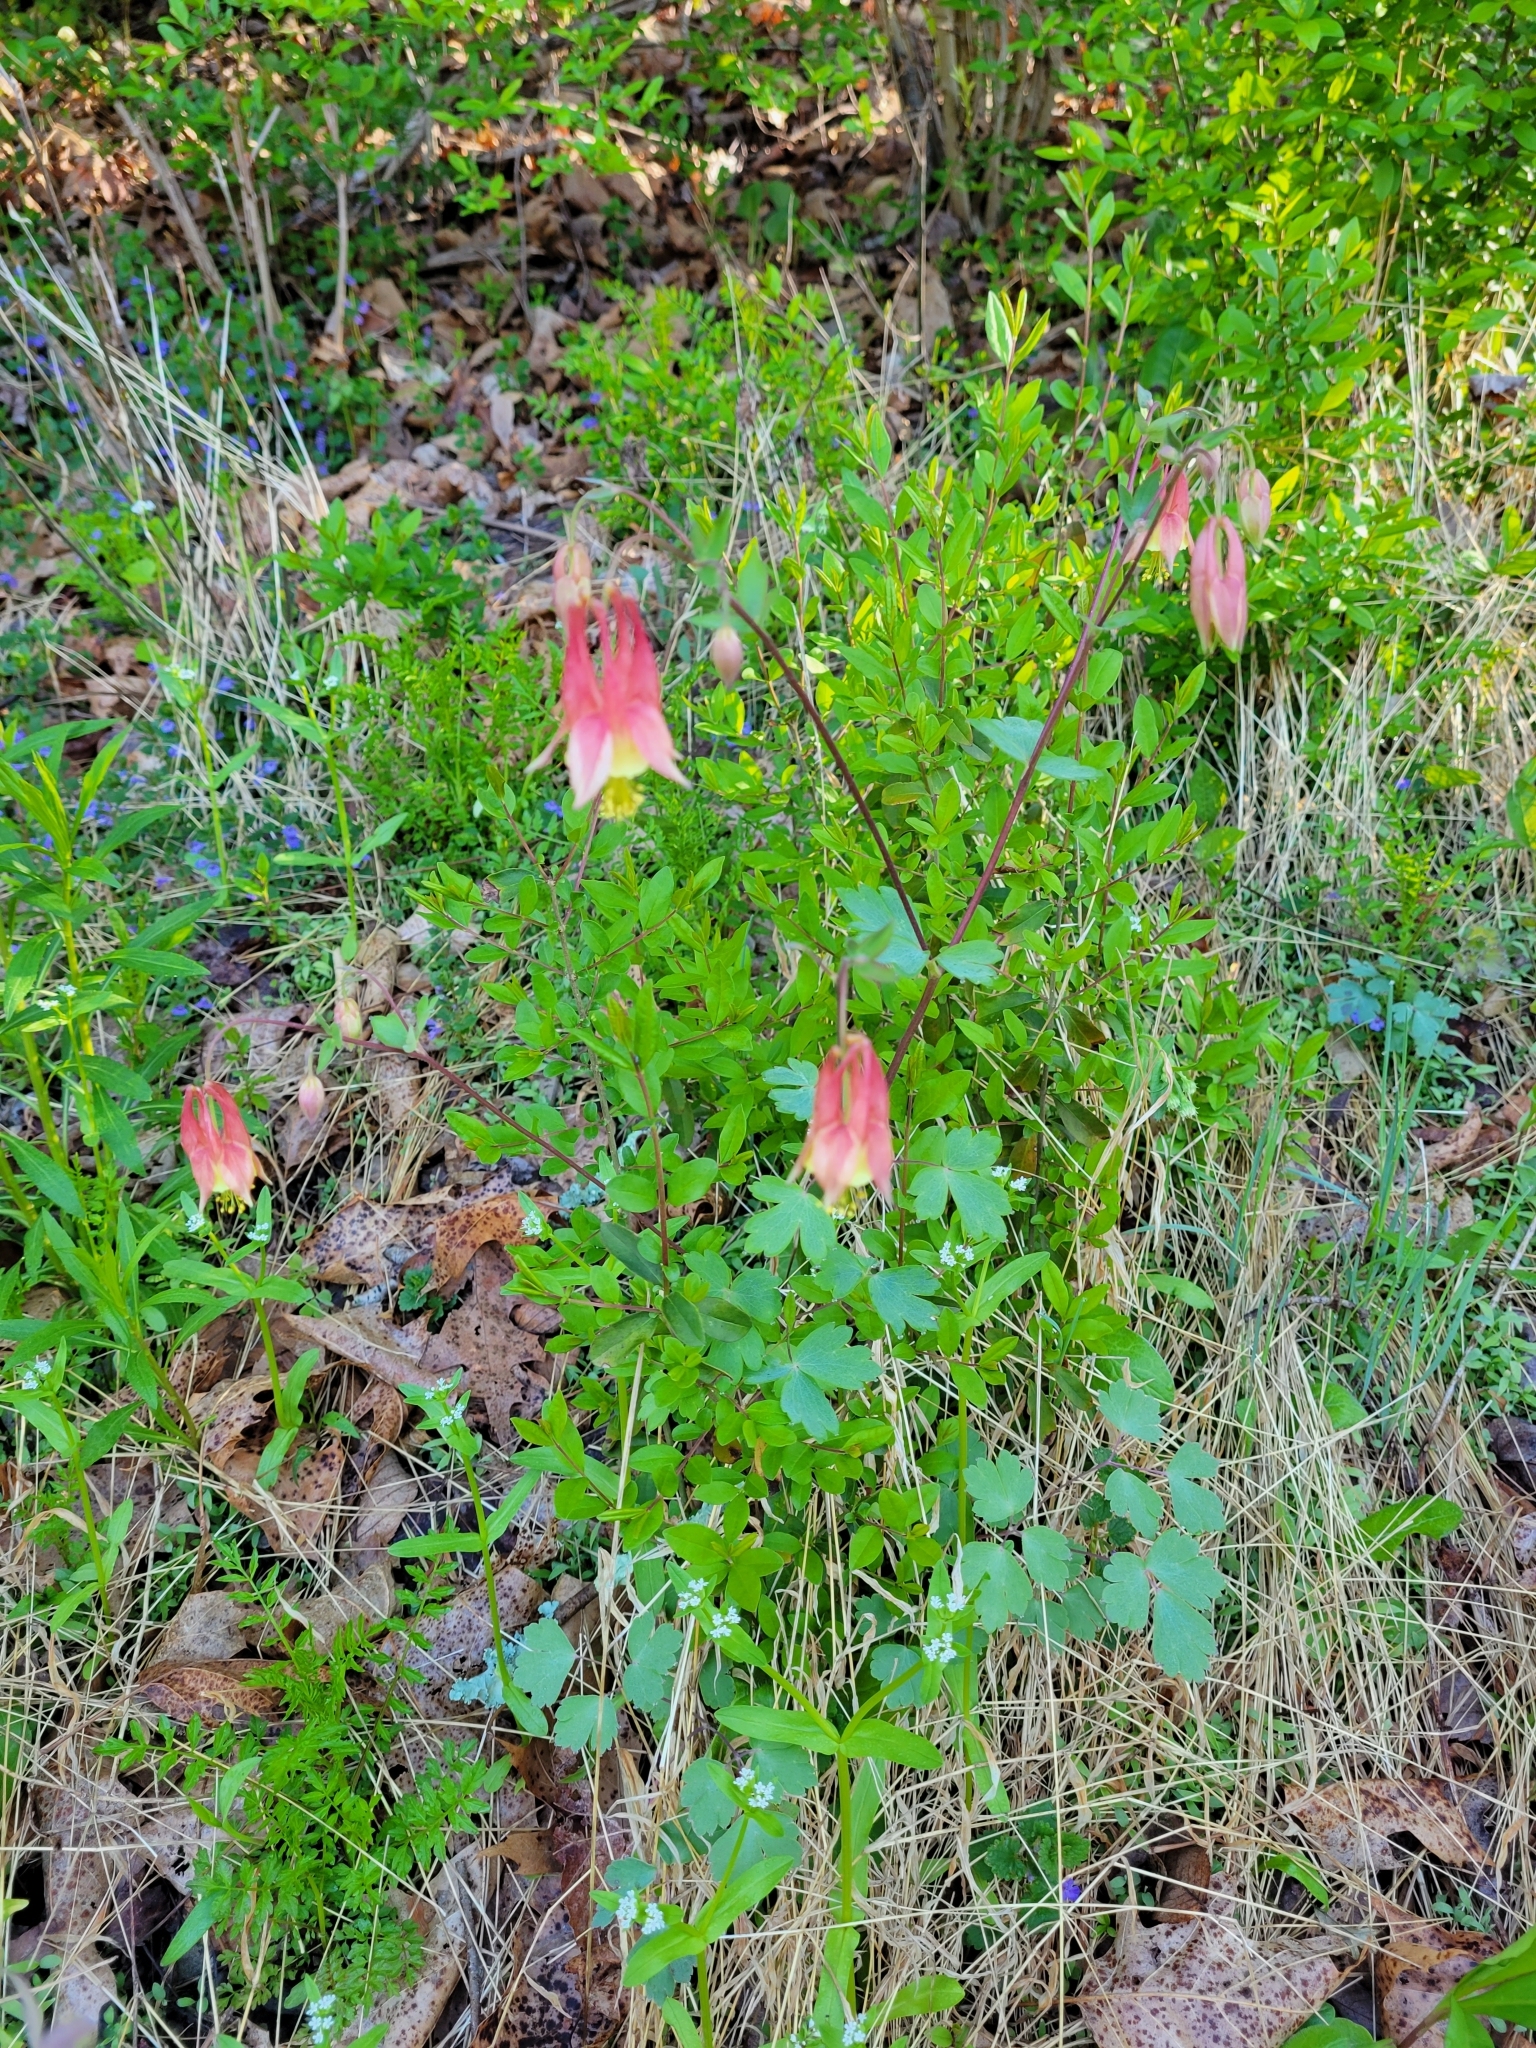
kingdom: Plantae
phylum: Tracheophyta
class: Magnoliopsida
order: Ranunculales
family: Ranunculaceae
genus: Aquilegia
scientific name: Aquilegia canadensis
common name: American columbine
